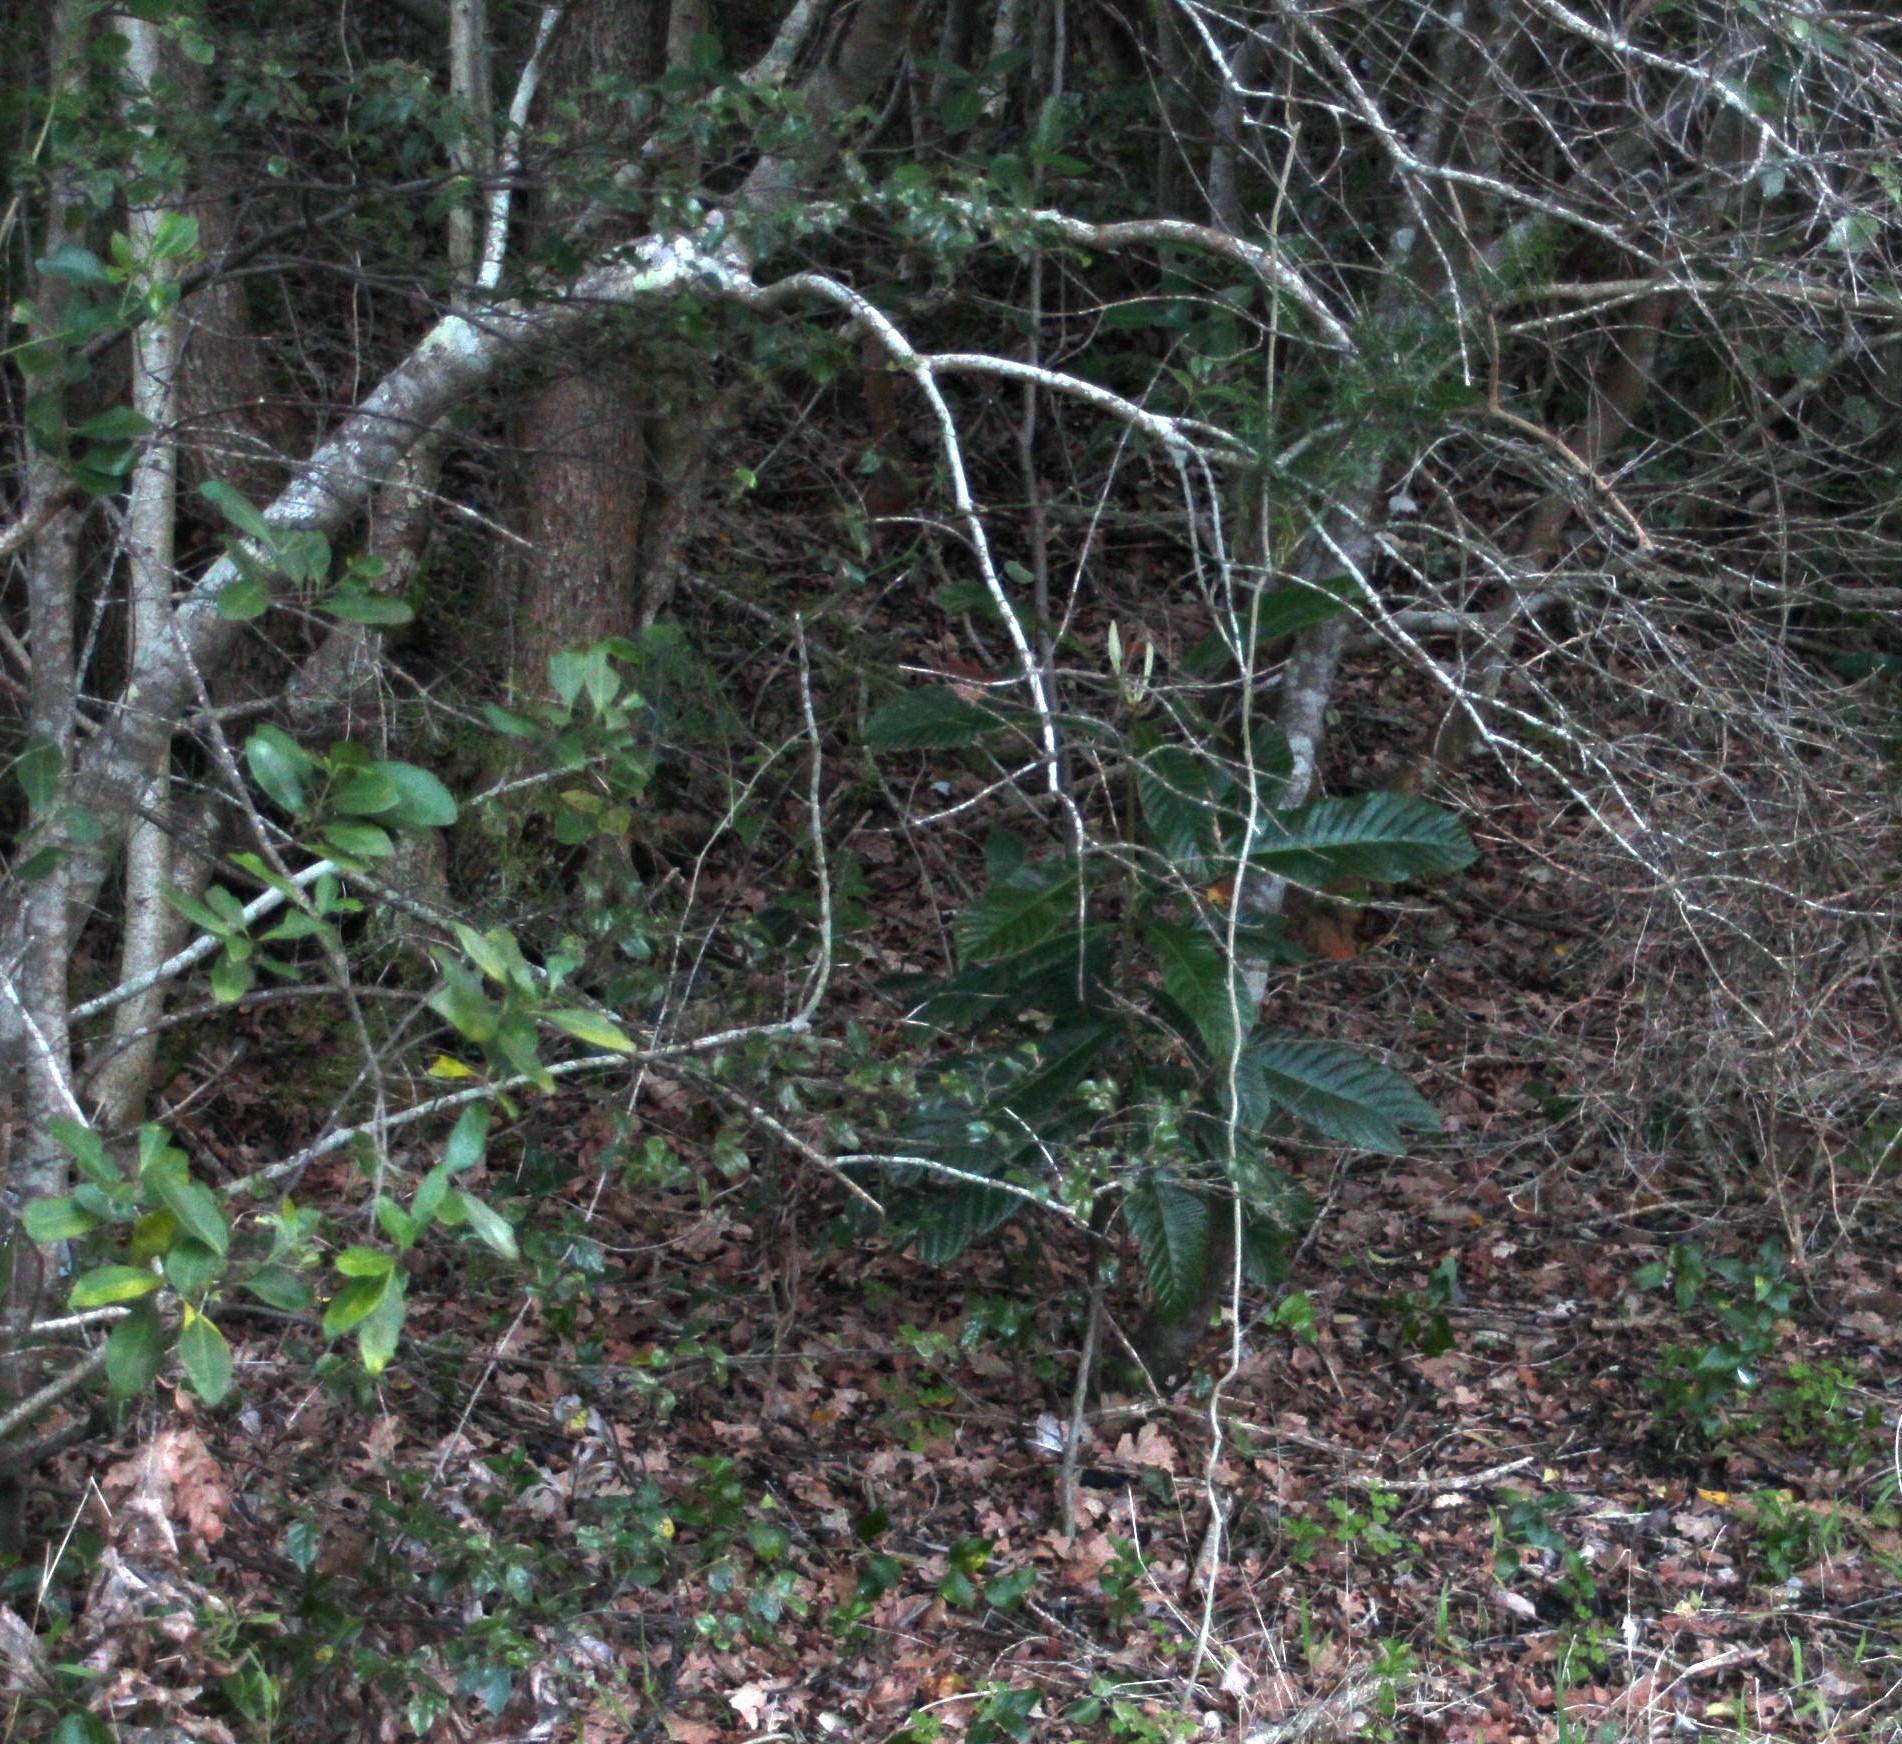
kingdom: Plantae
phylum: Tracheophyta
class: Magnoliopsida
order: Rosales
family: Rosaceae
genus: Rhaphiolepis
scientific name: Rhaphiolepis bibas
